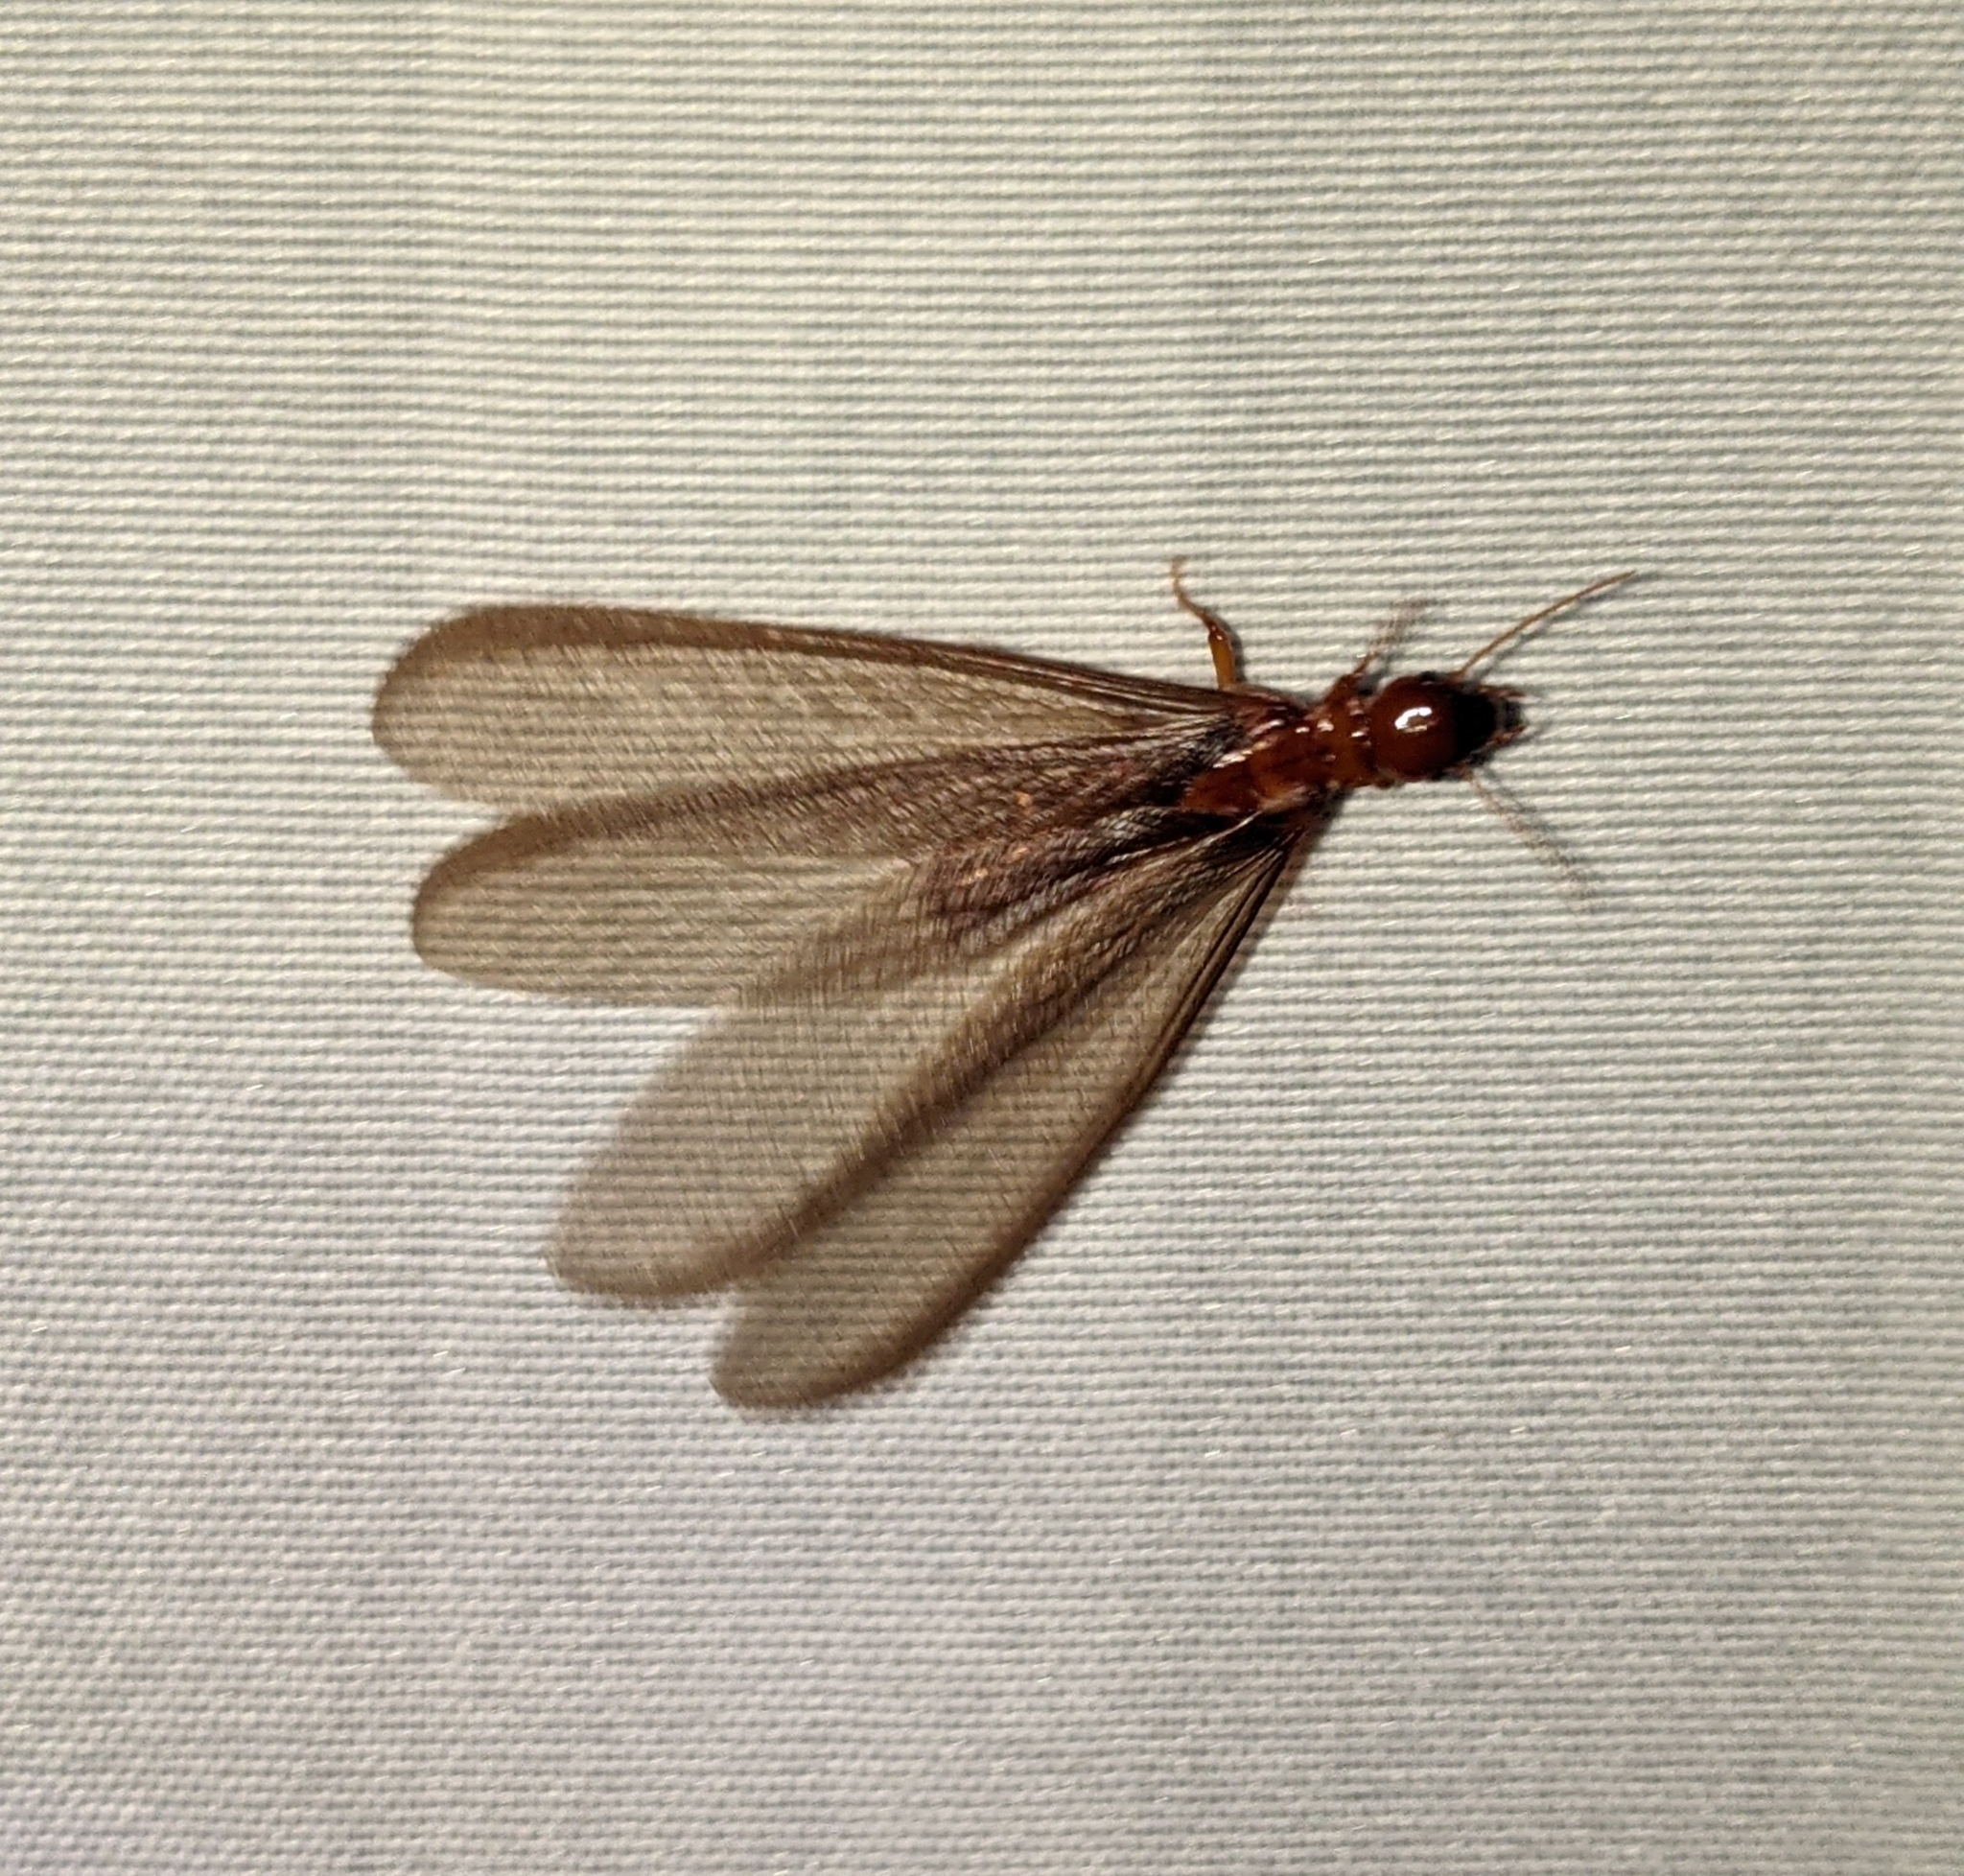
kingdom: Animalia
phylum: Arthropoda
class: Insecta
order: Blattodea
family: Archotermopsidae
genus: Zootermopsis
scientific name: Zootermopsis angusticollis
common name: Rottenwood termite
